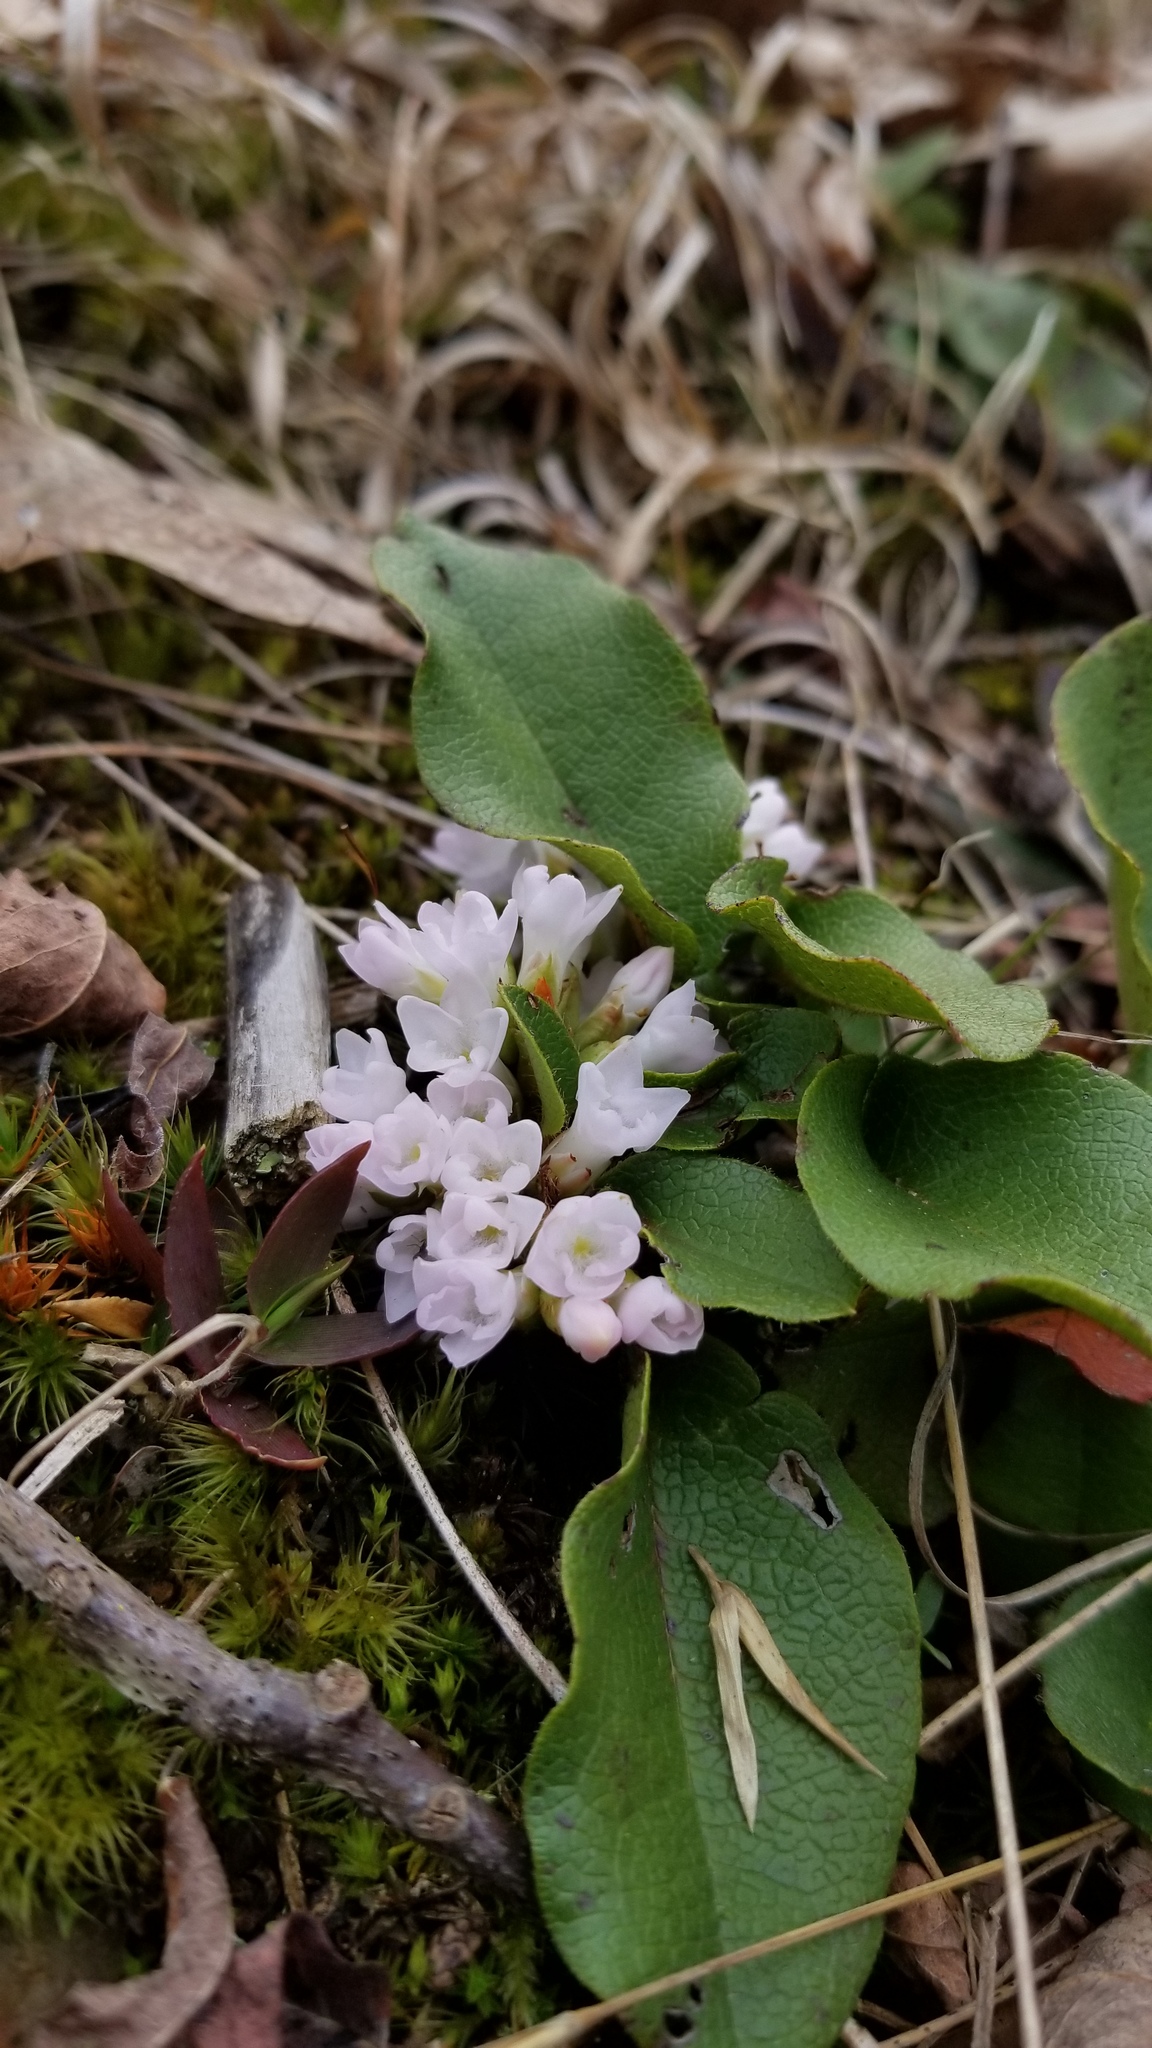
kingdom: Plantae
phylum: Tracheophyta
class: Magnoliopsida
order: Ericales
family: Ericaceae
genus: Epigaea
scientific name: Epigaea repens
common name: Gravelroot
